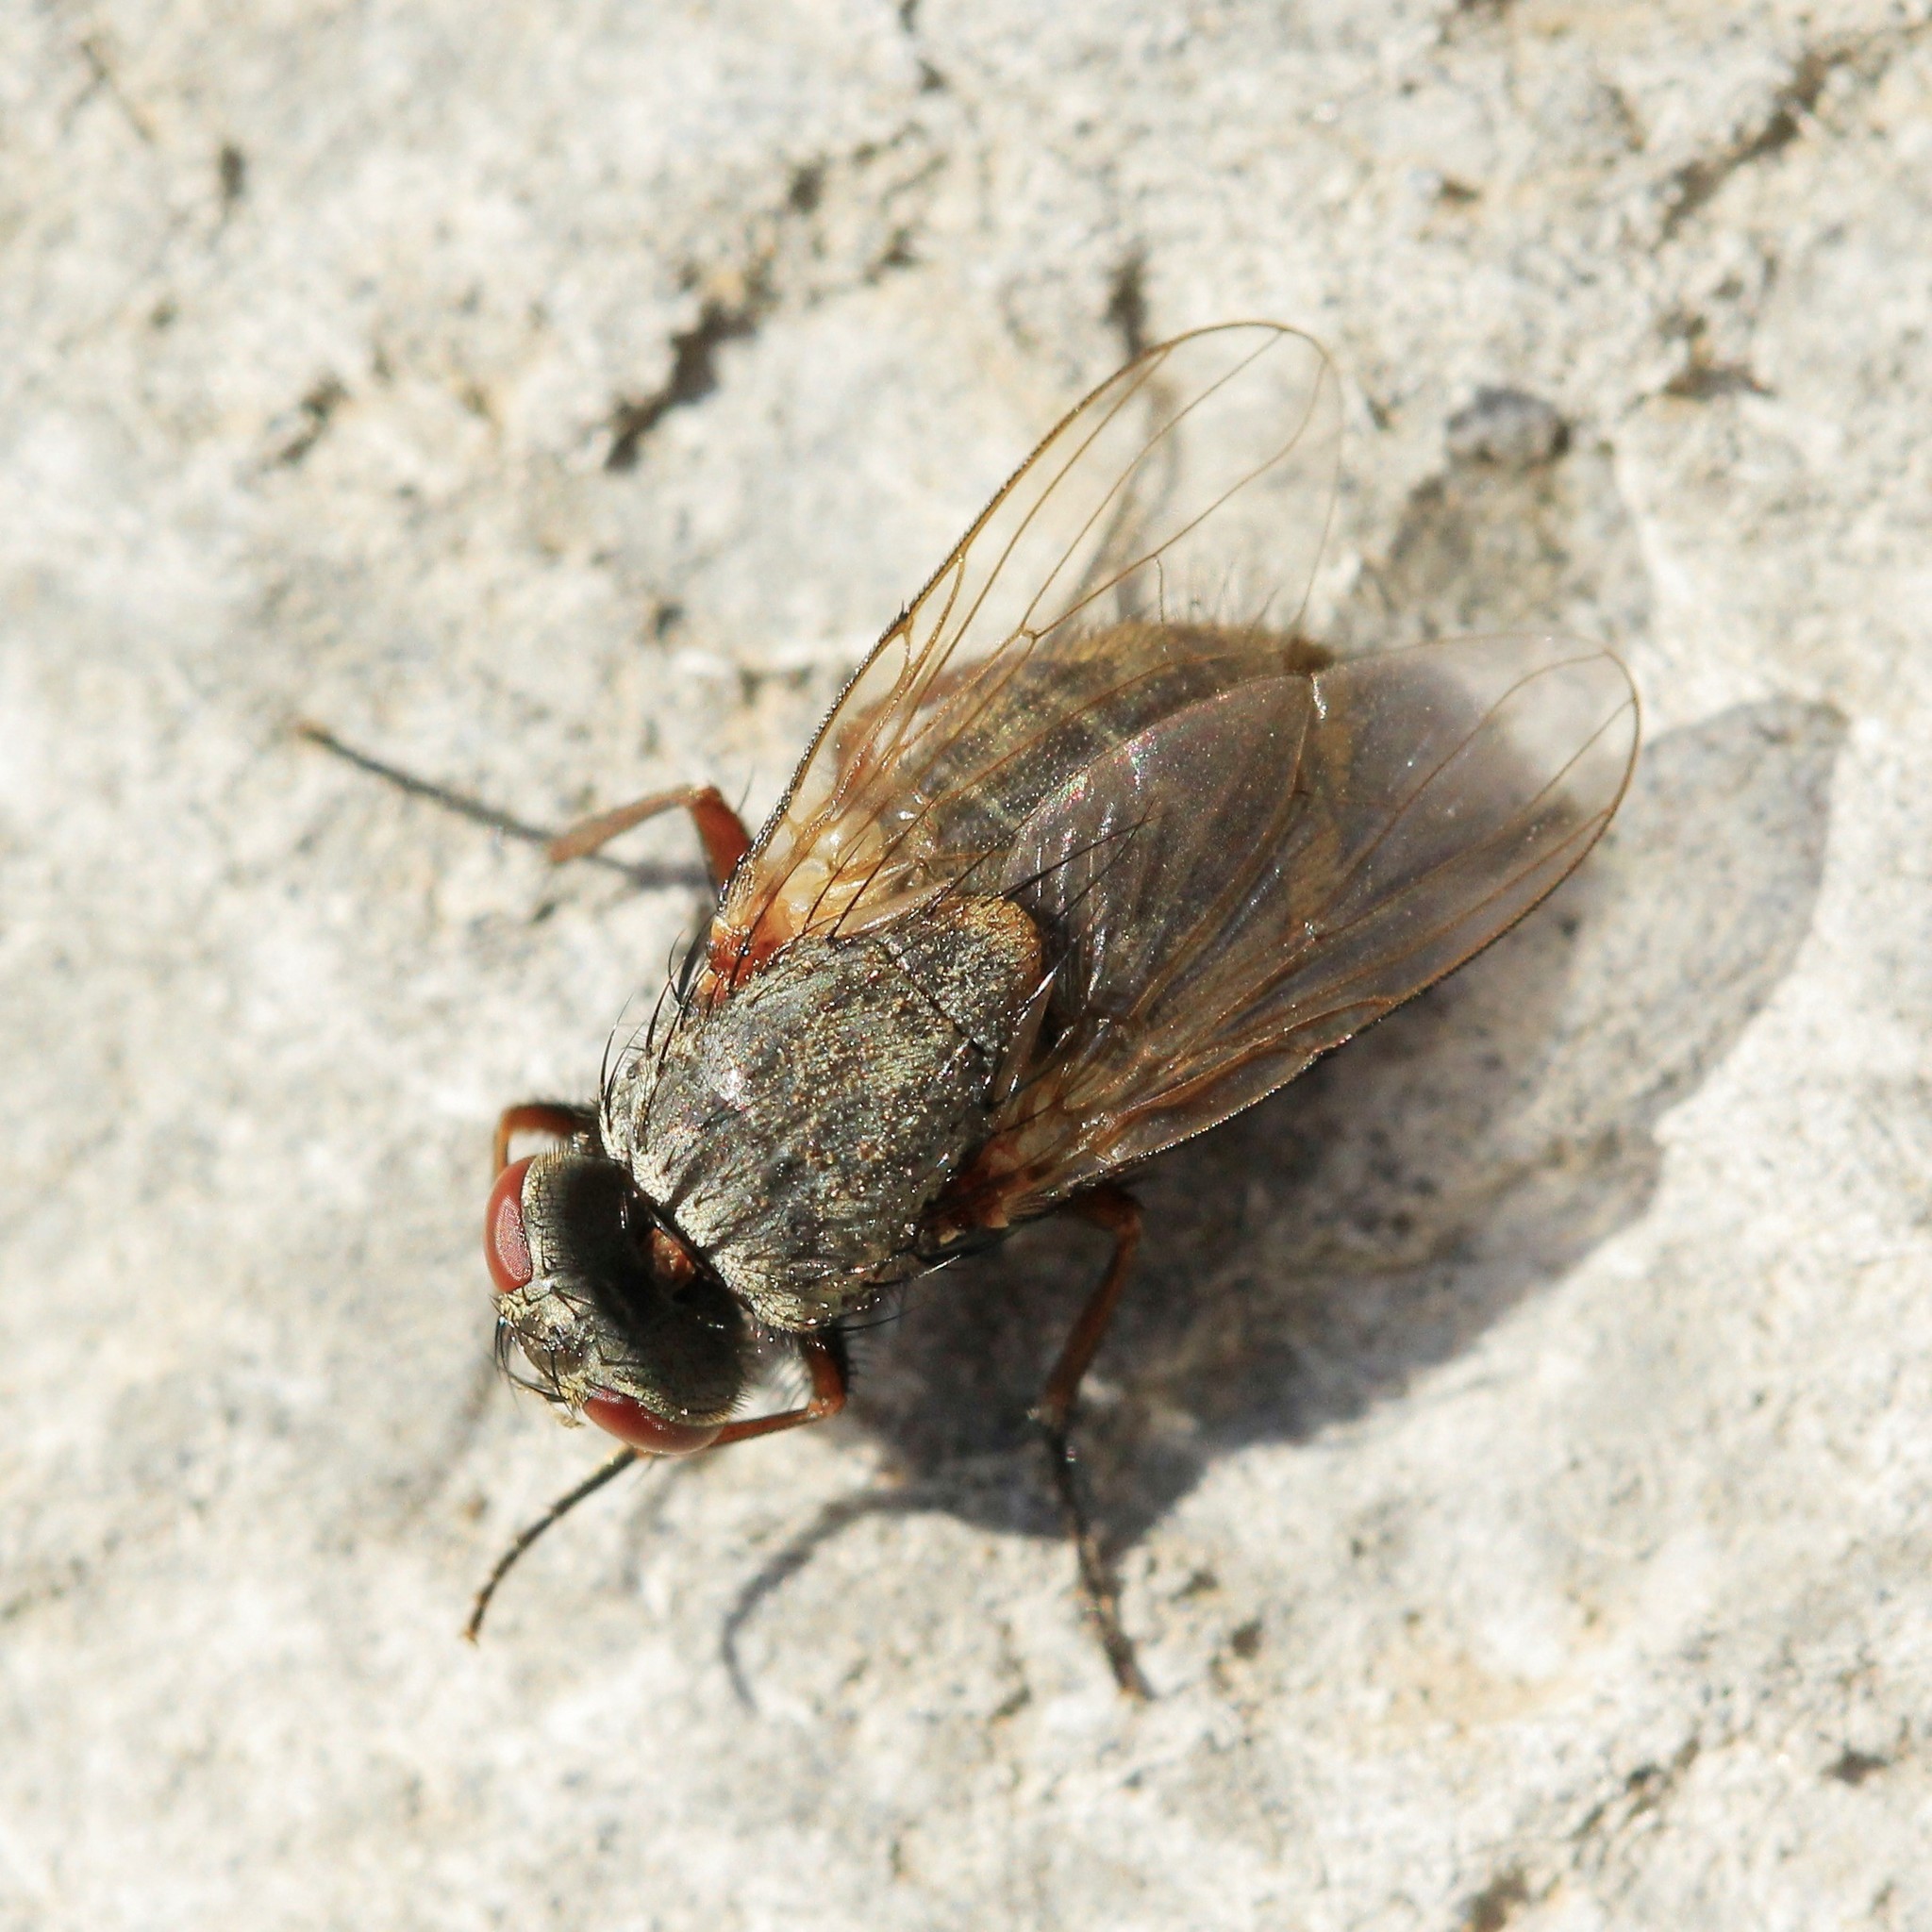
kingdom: Animalia
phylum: Arthropoda
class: Insecta
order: Diptera
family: Muscidae
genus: Muscina
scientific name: Muscina stabulans
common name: False stable fly
